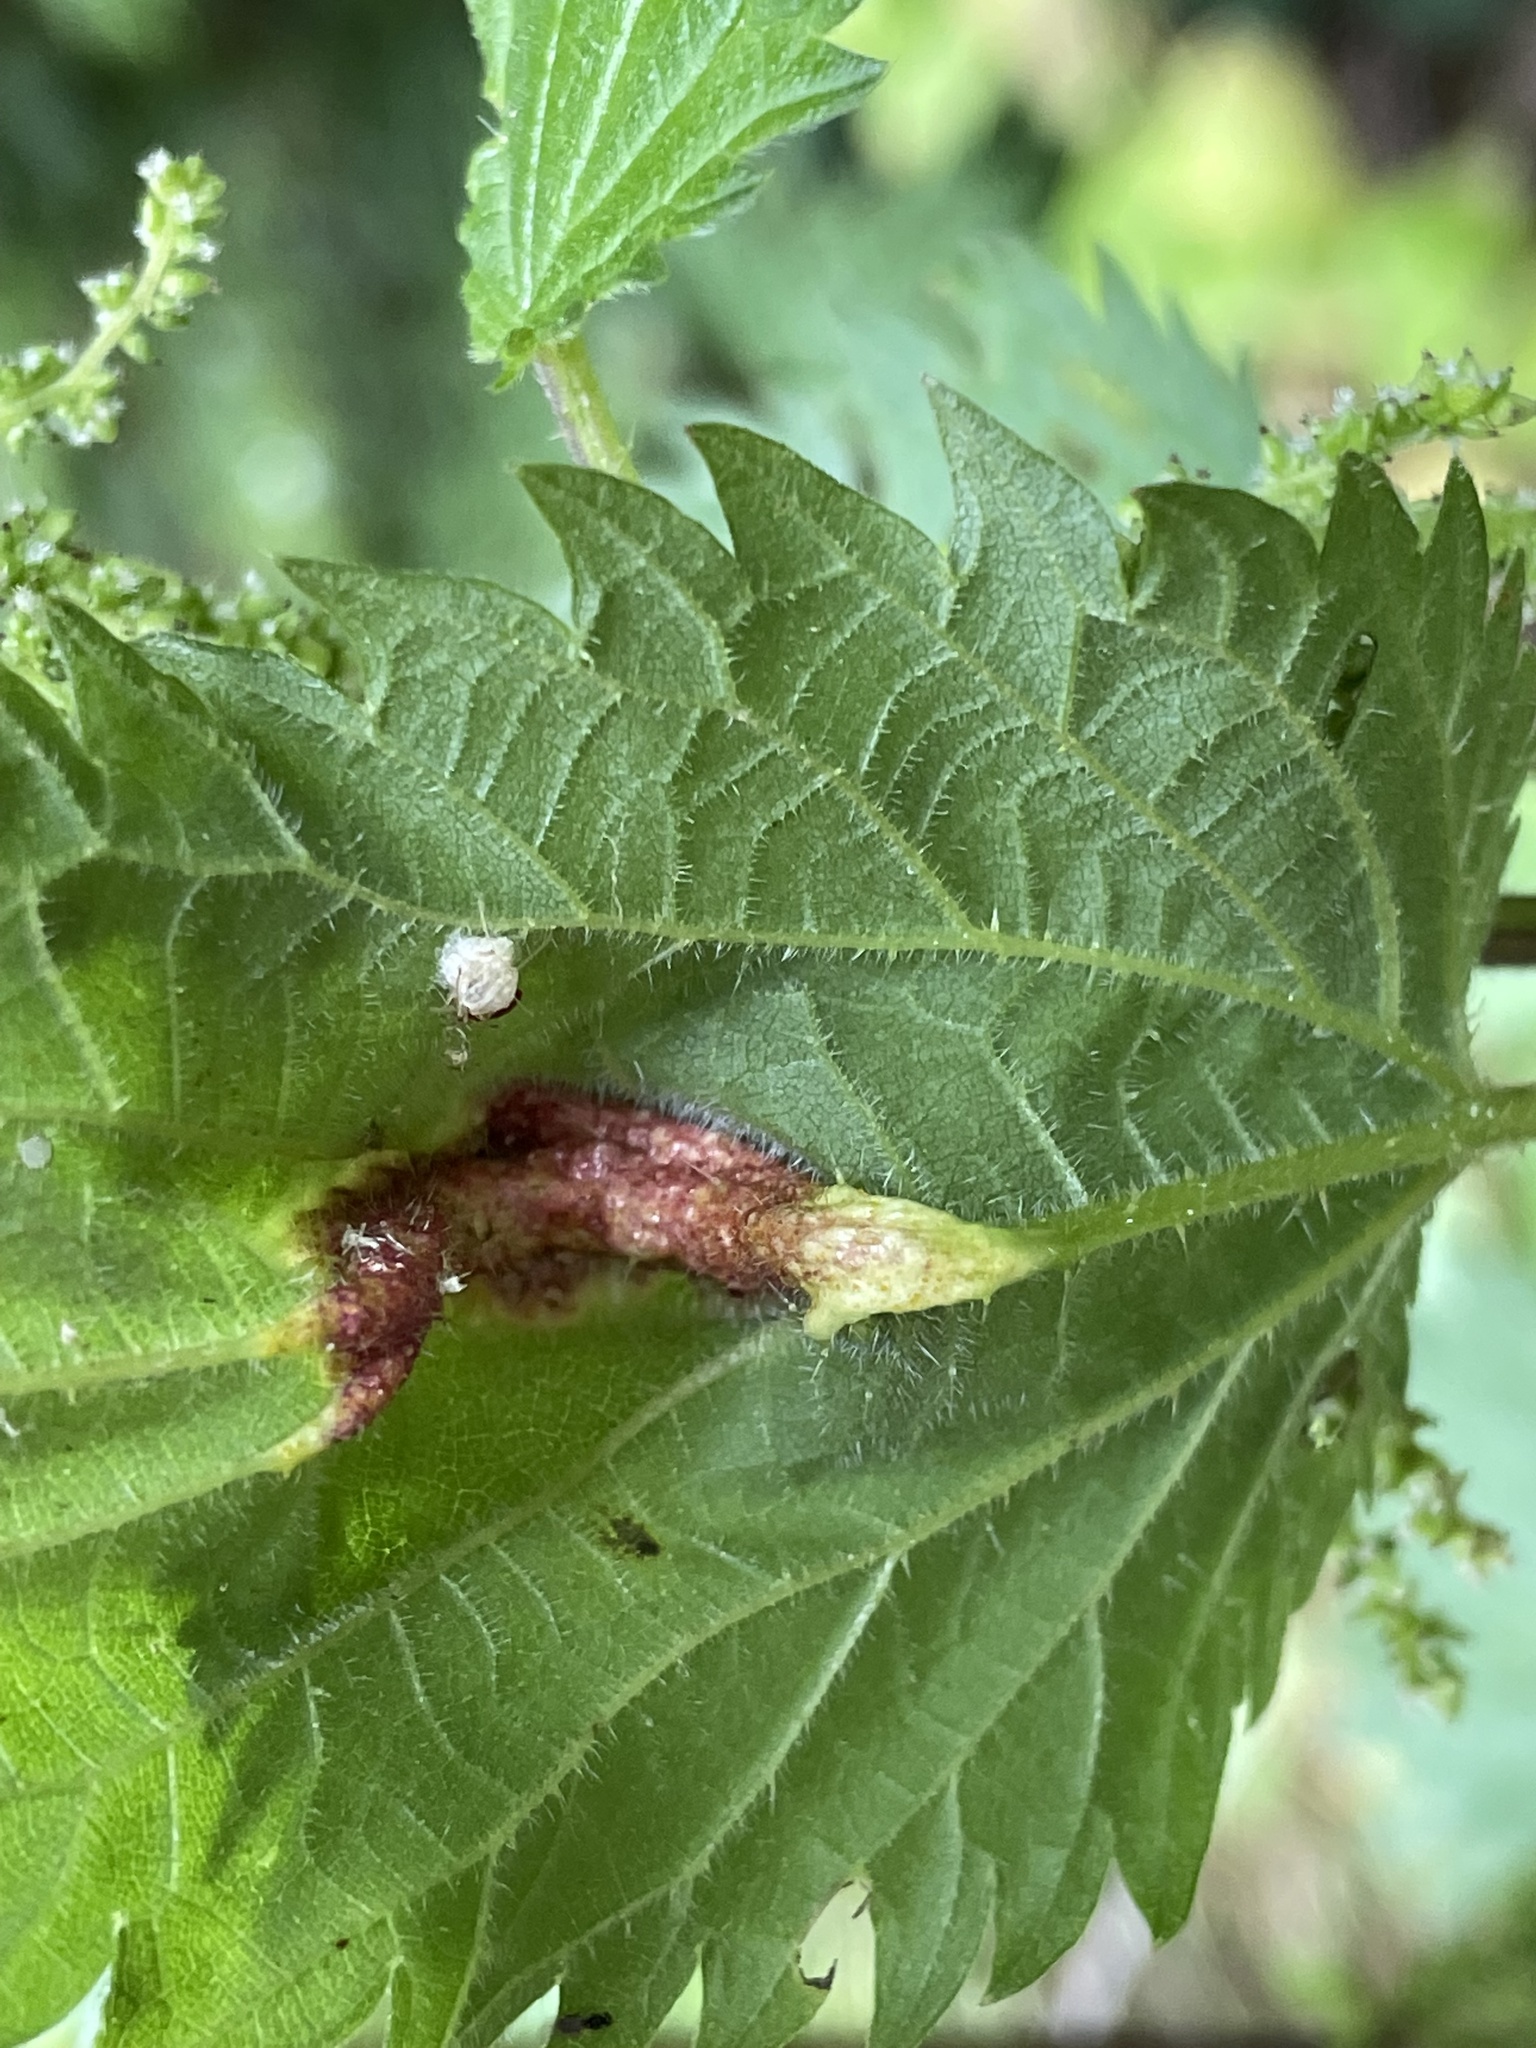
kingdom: Animalia
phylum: Arthropoda
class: Insecta
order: Diptera
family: Cecidomyiidae
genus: Dasineura
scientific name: Dasineura urticae
